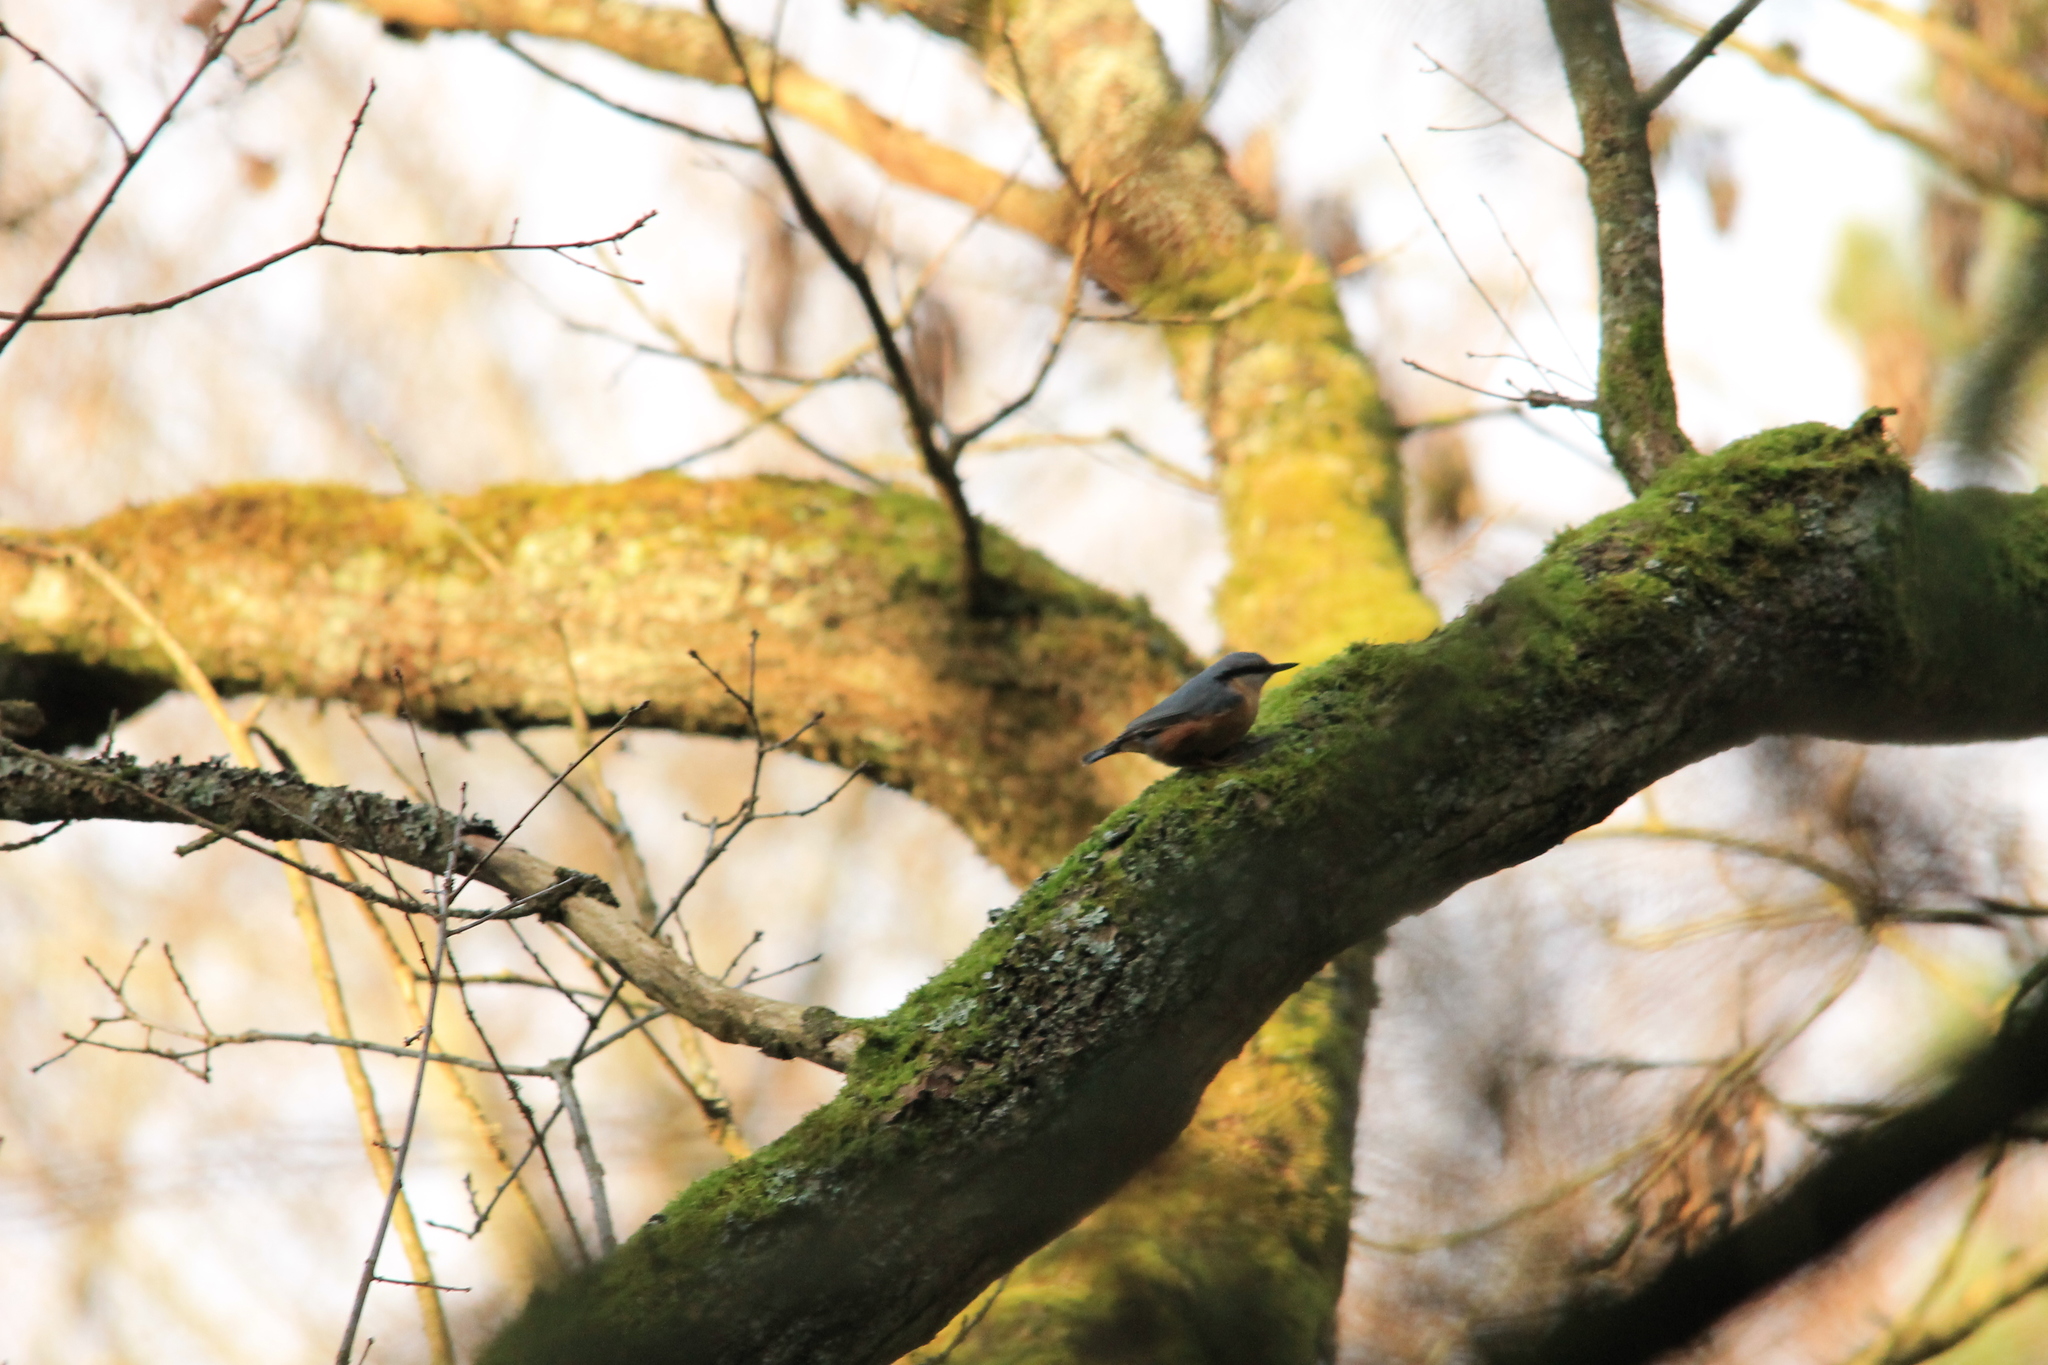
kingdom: Animalia
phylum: Chordata
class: Aves
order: Passeriformes
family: Sittidae
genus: Sitta
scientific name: Sitta europaea
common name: Eurasian nuthatch
